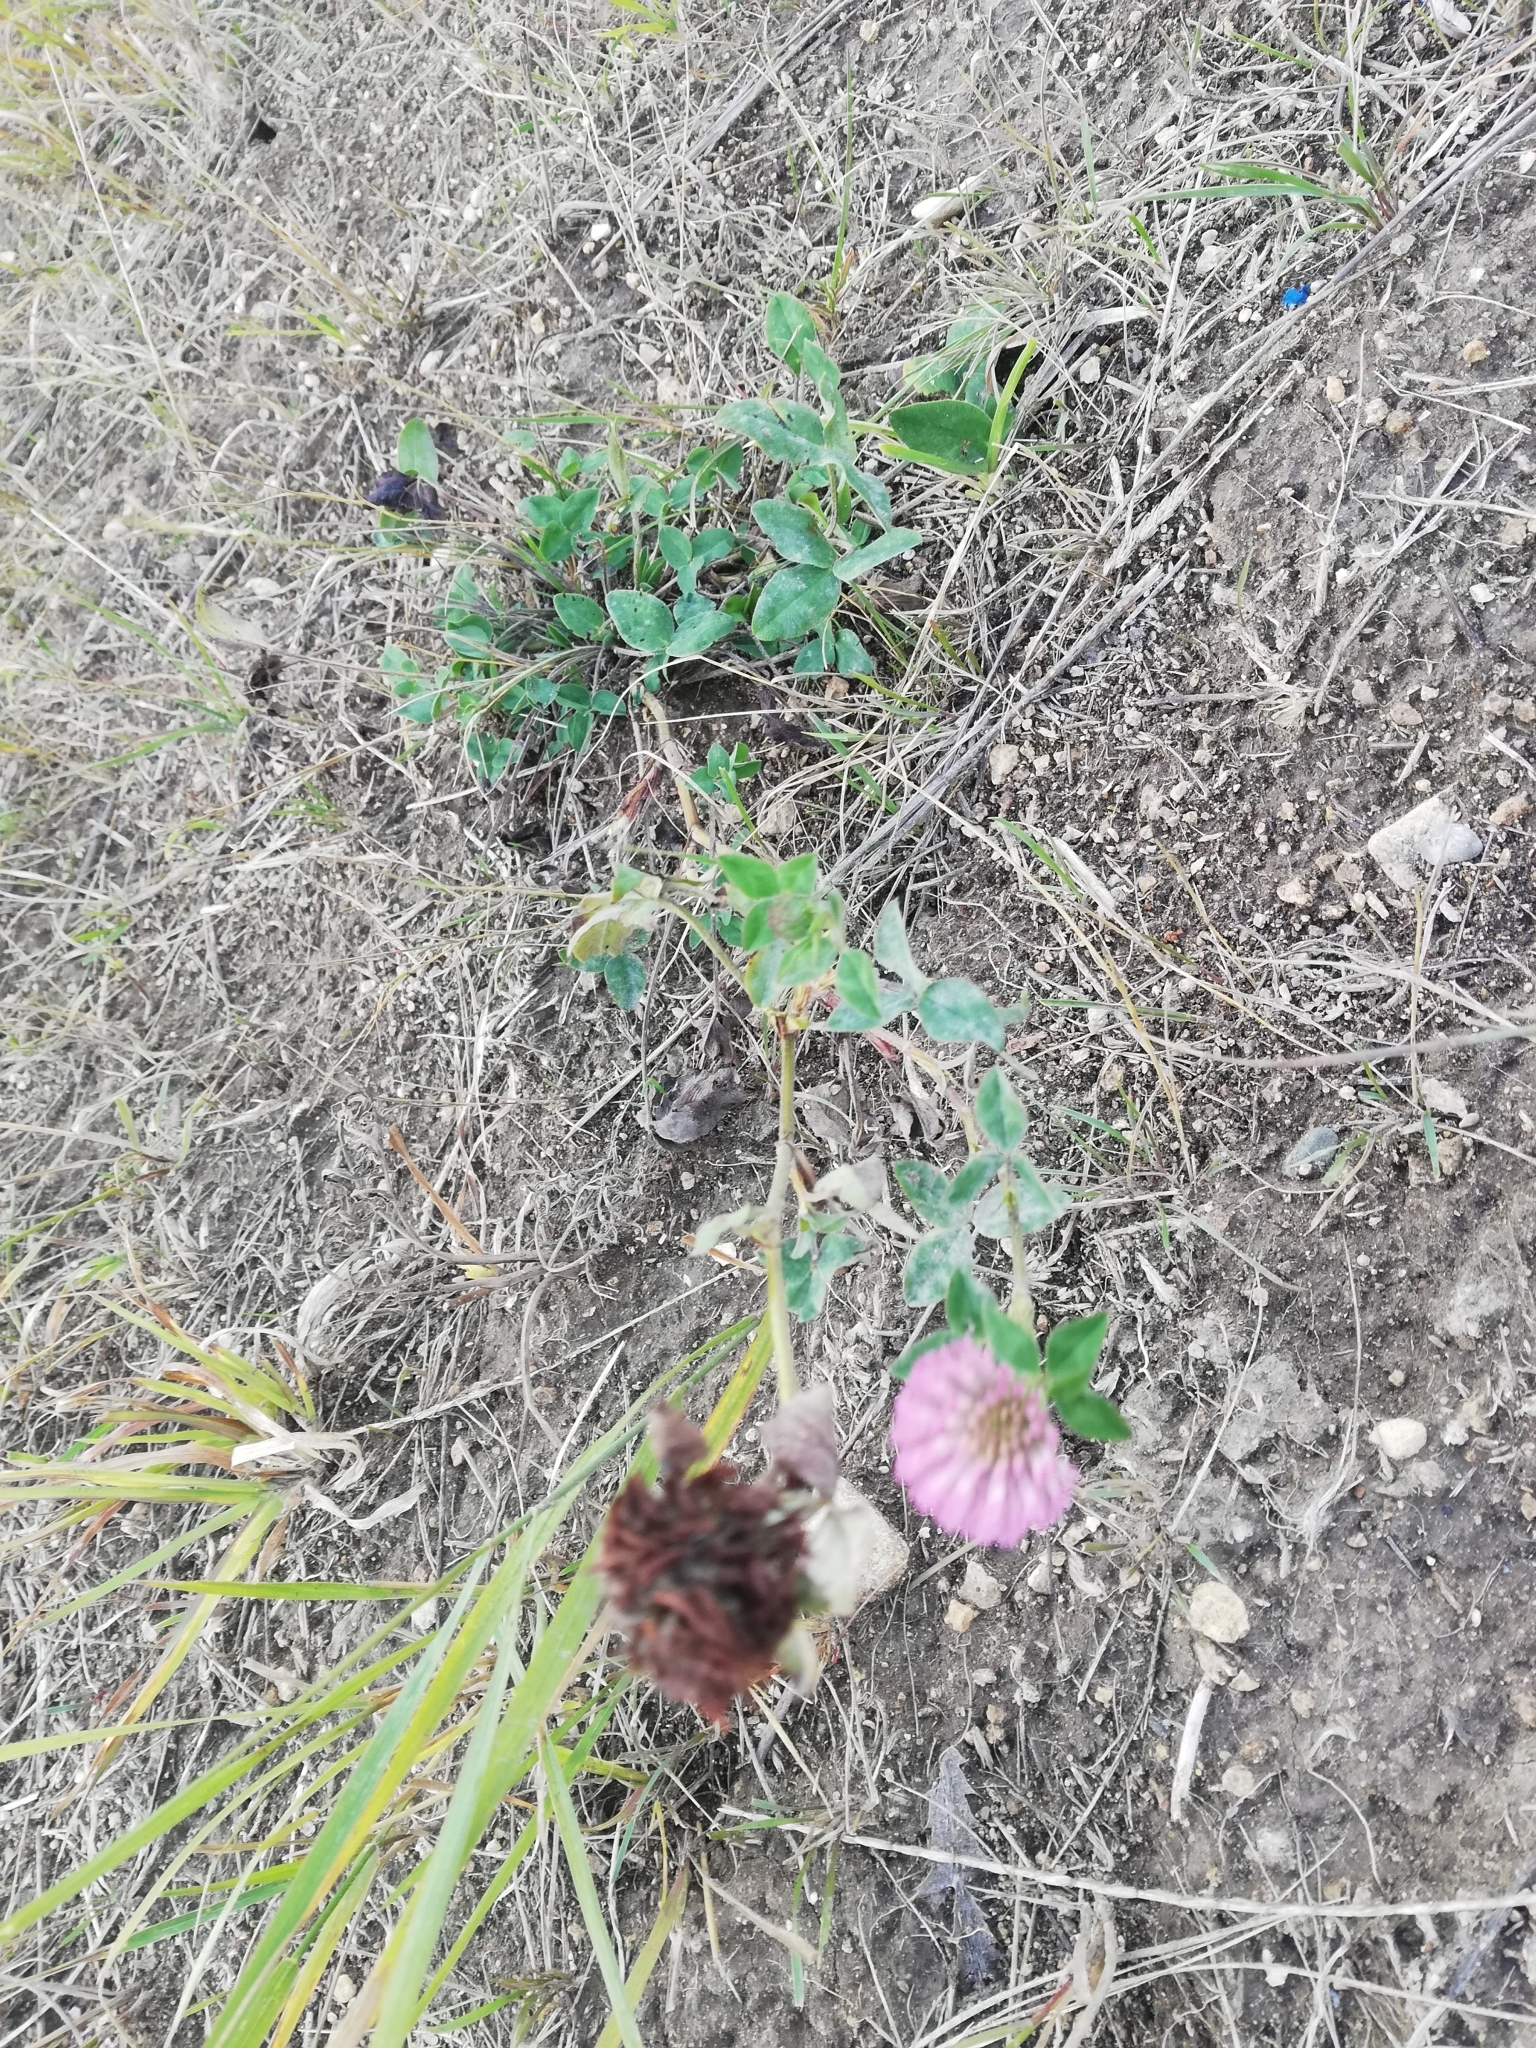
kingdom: Plantae
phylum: Tracheophyta
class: Magnoliopsida
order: Fabales
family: Fabaceae
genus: Trifolium
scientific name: Trifolium pratense
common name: Red clover
